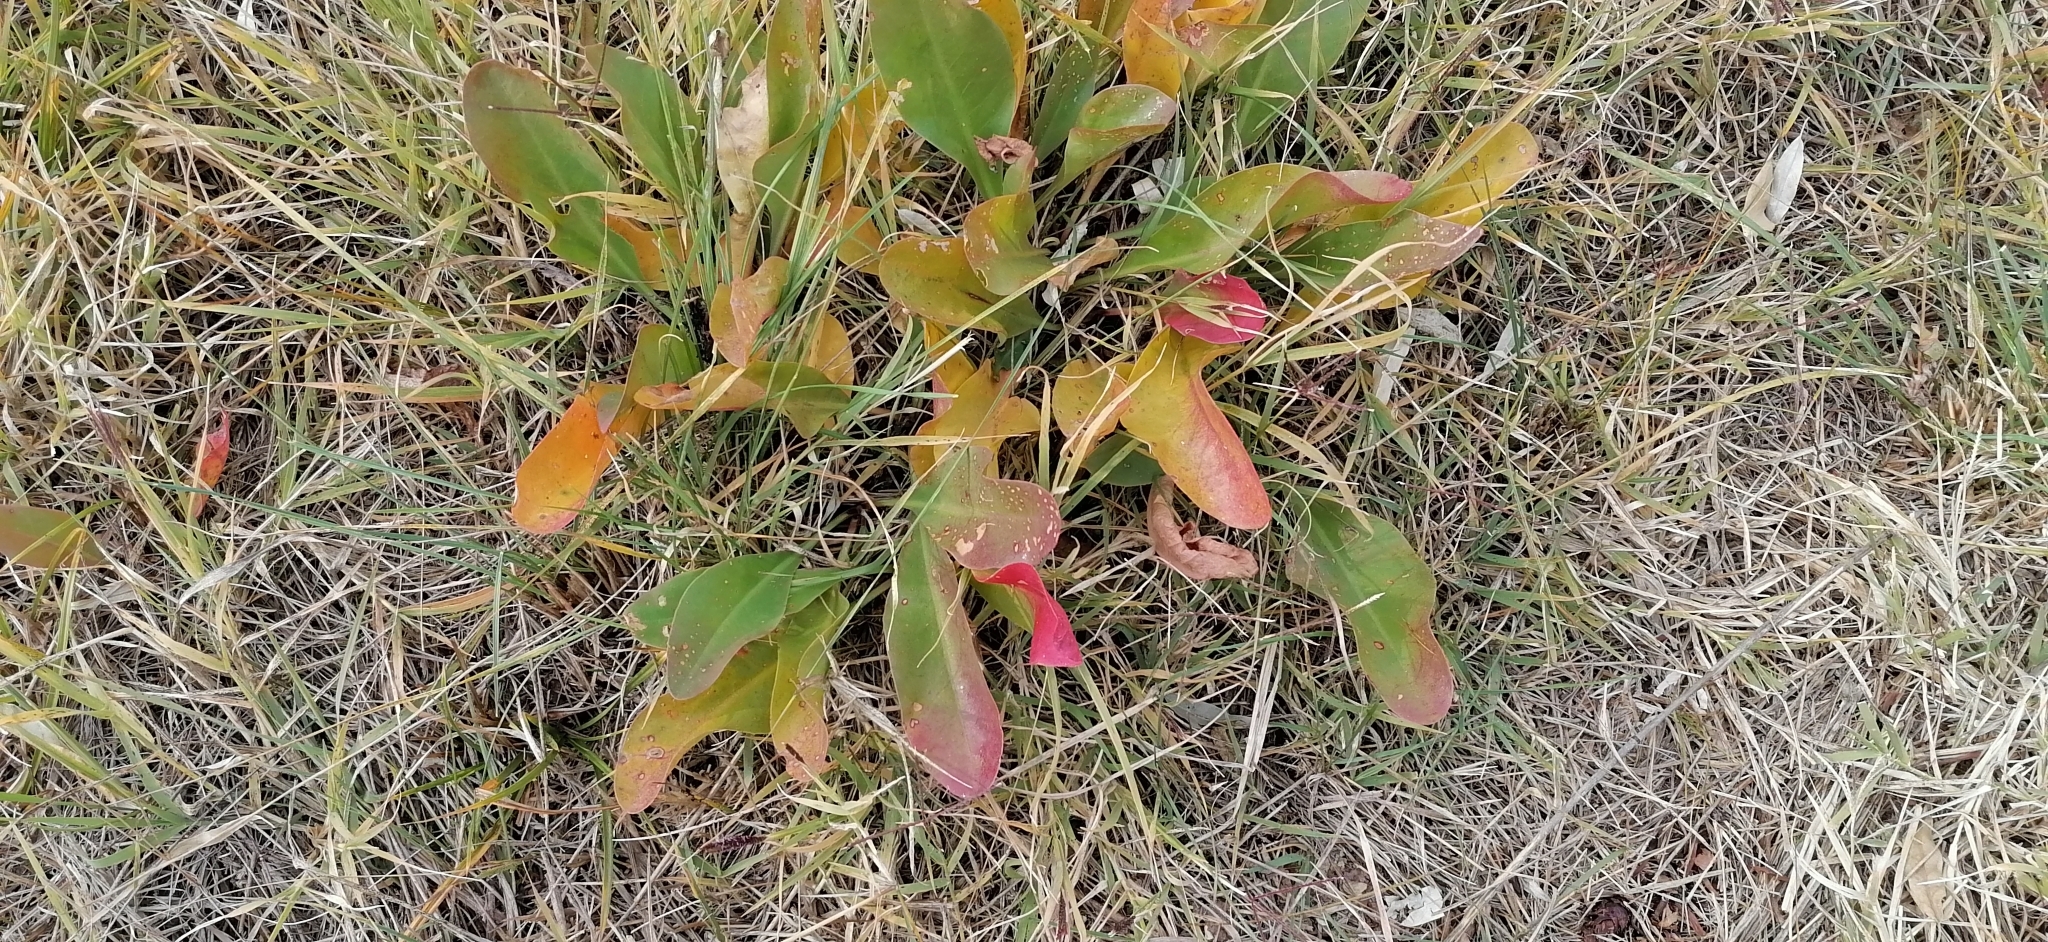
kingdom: Plantae
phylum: Tracheophyta
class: Magnoliopsida
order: Caryophyllales
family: Plumbaginaceae
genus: Limonium
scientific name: Limonium gmelini
